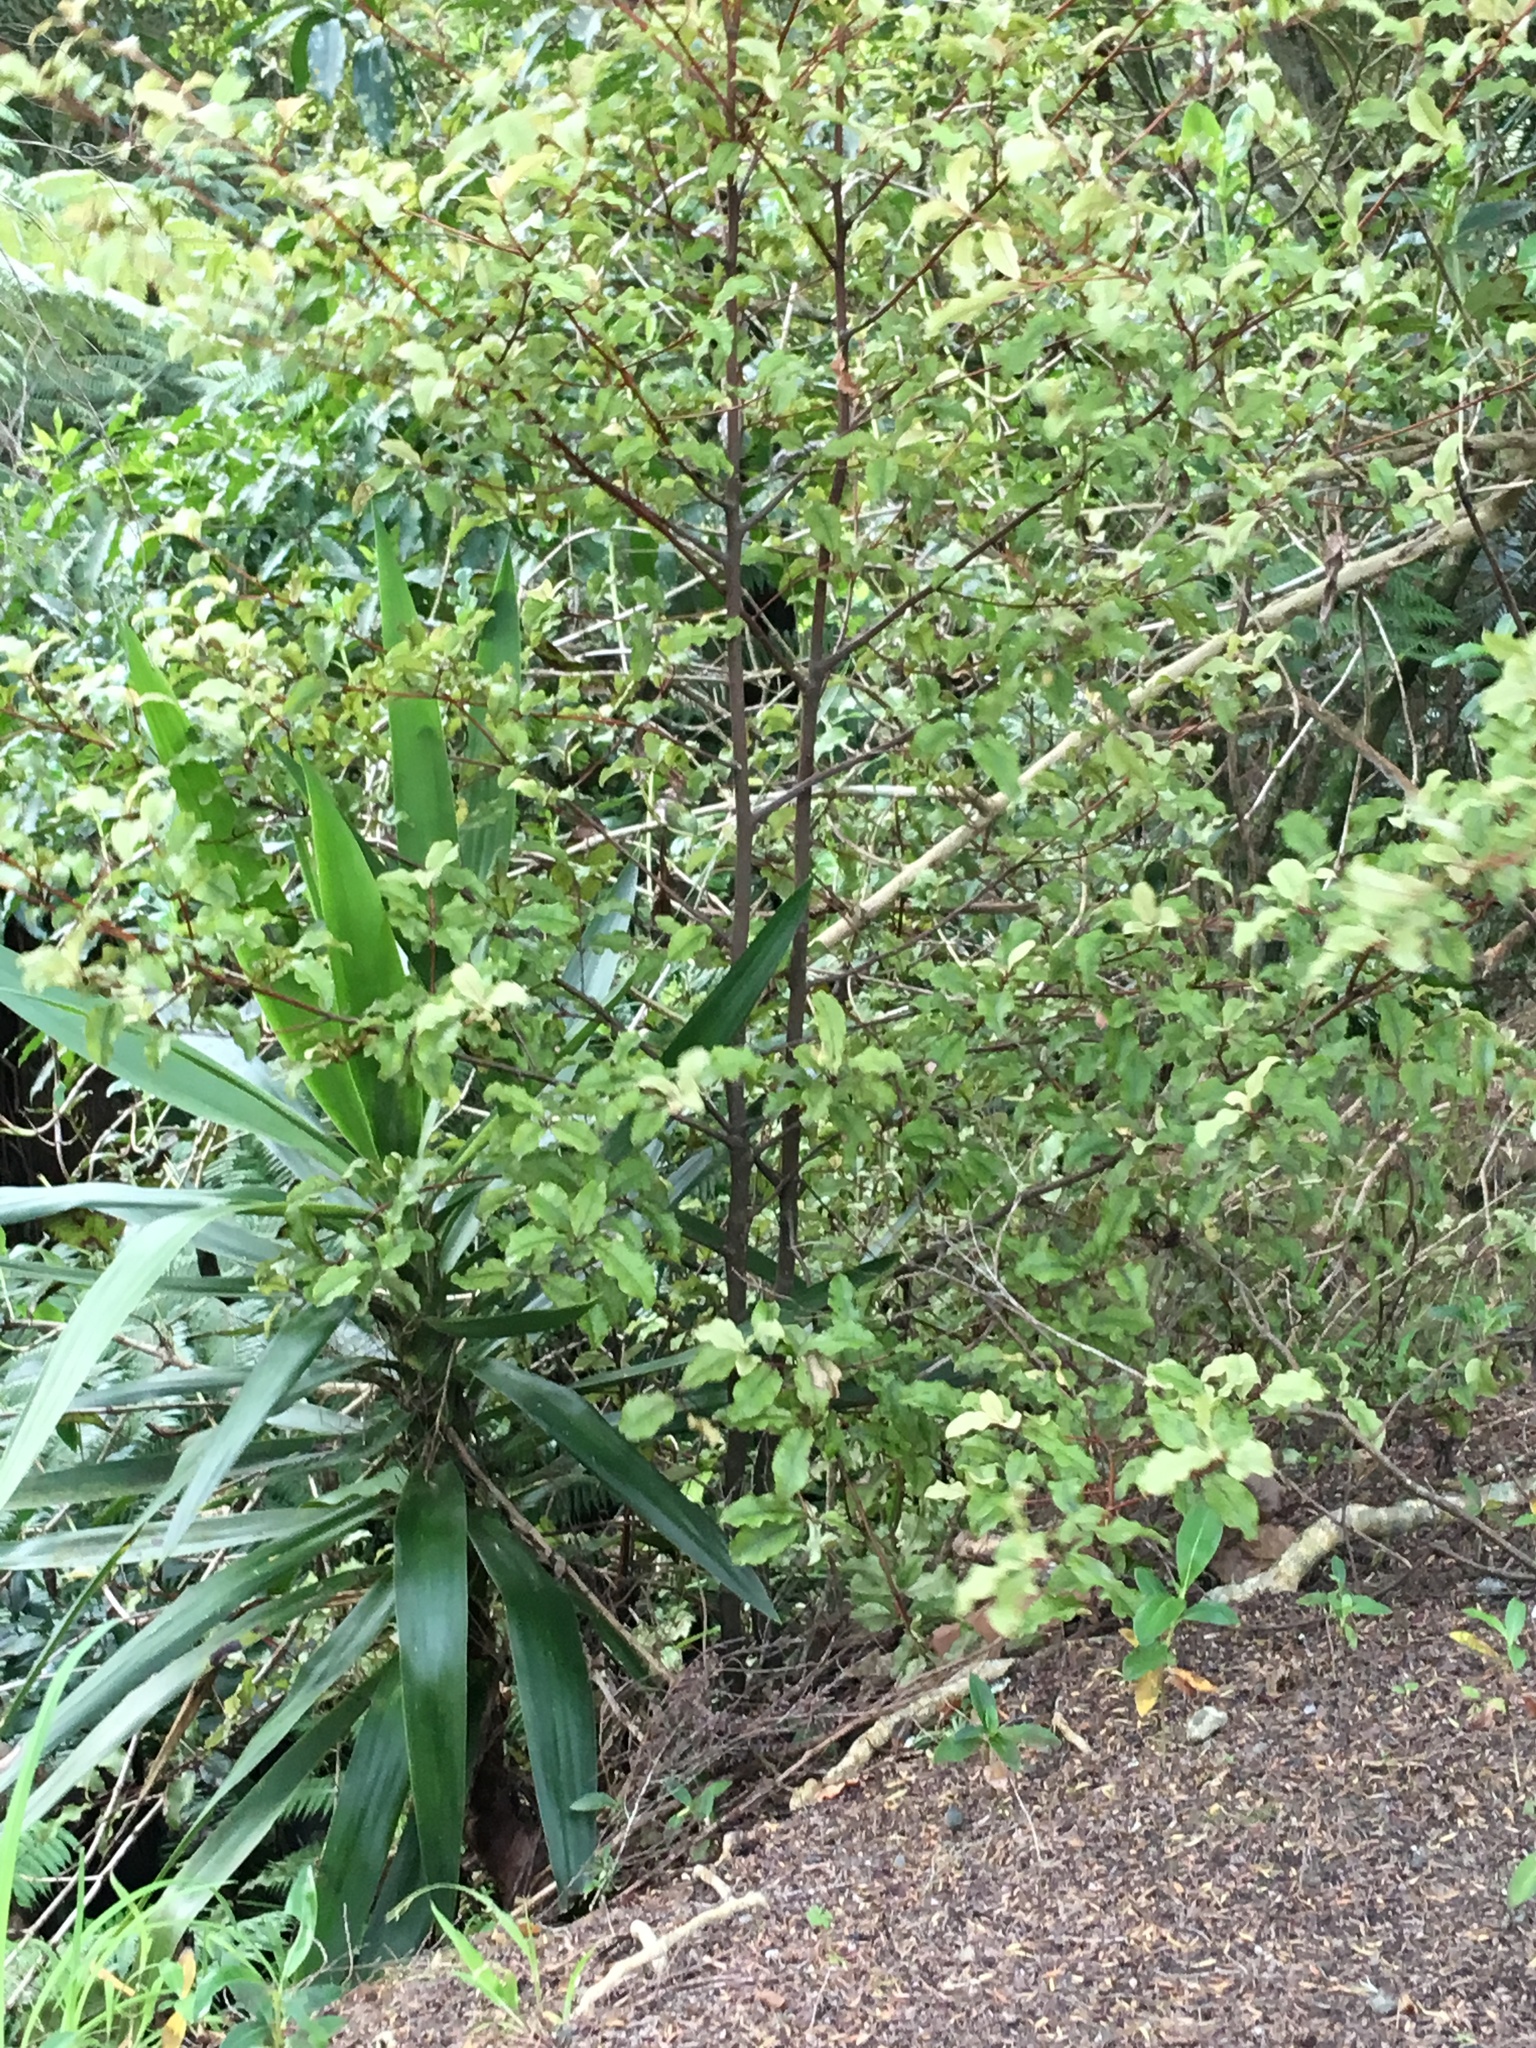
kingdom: Plantae
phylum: Tracheophyta
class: Magnoliopsida
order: Ericales
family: Primulaceae
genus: Myrsine
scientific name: Myrsine australis
